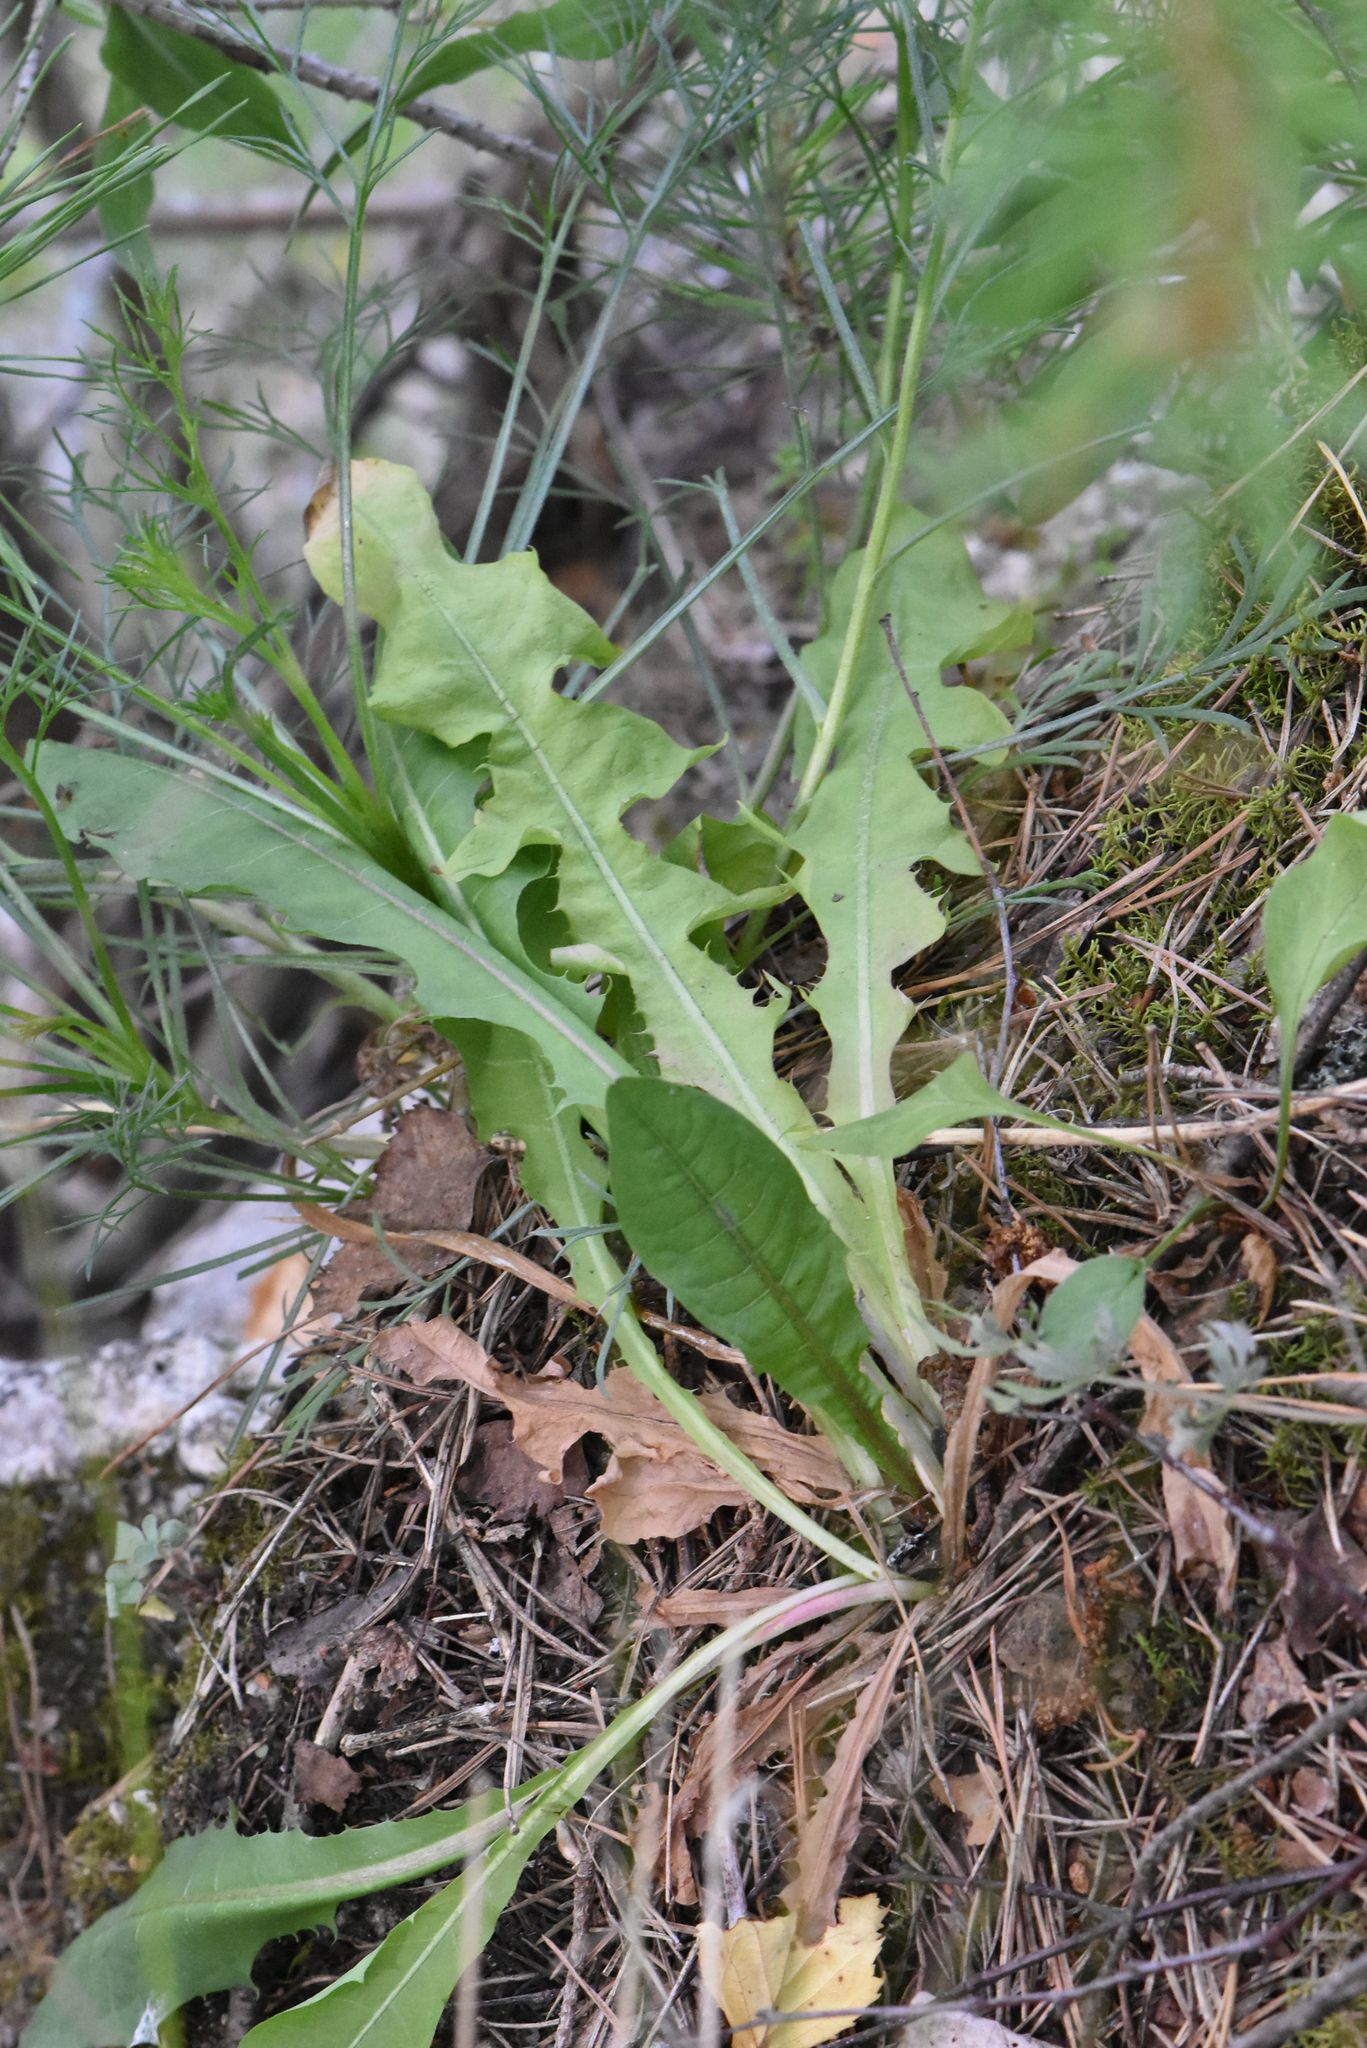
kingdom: Plantae
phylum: Tracheophyta
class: Magnoliopsida
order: Asterales
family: Asteraceae
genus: Taraxacum
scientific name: Taraxacum officinale
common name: Common dandelion
